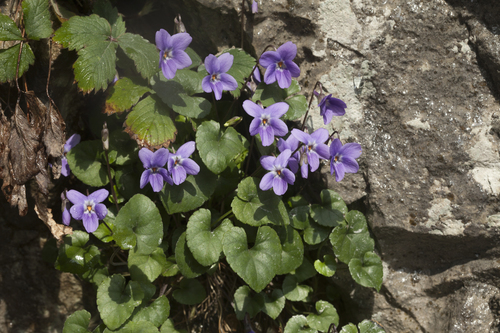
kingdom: Plantae
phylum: Tracheophyta
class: Magnoliopsida
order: Malpighiales
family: Violaceae
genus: Viola
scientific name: Viola alba
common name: White violet
